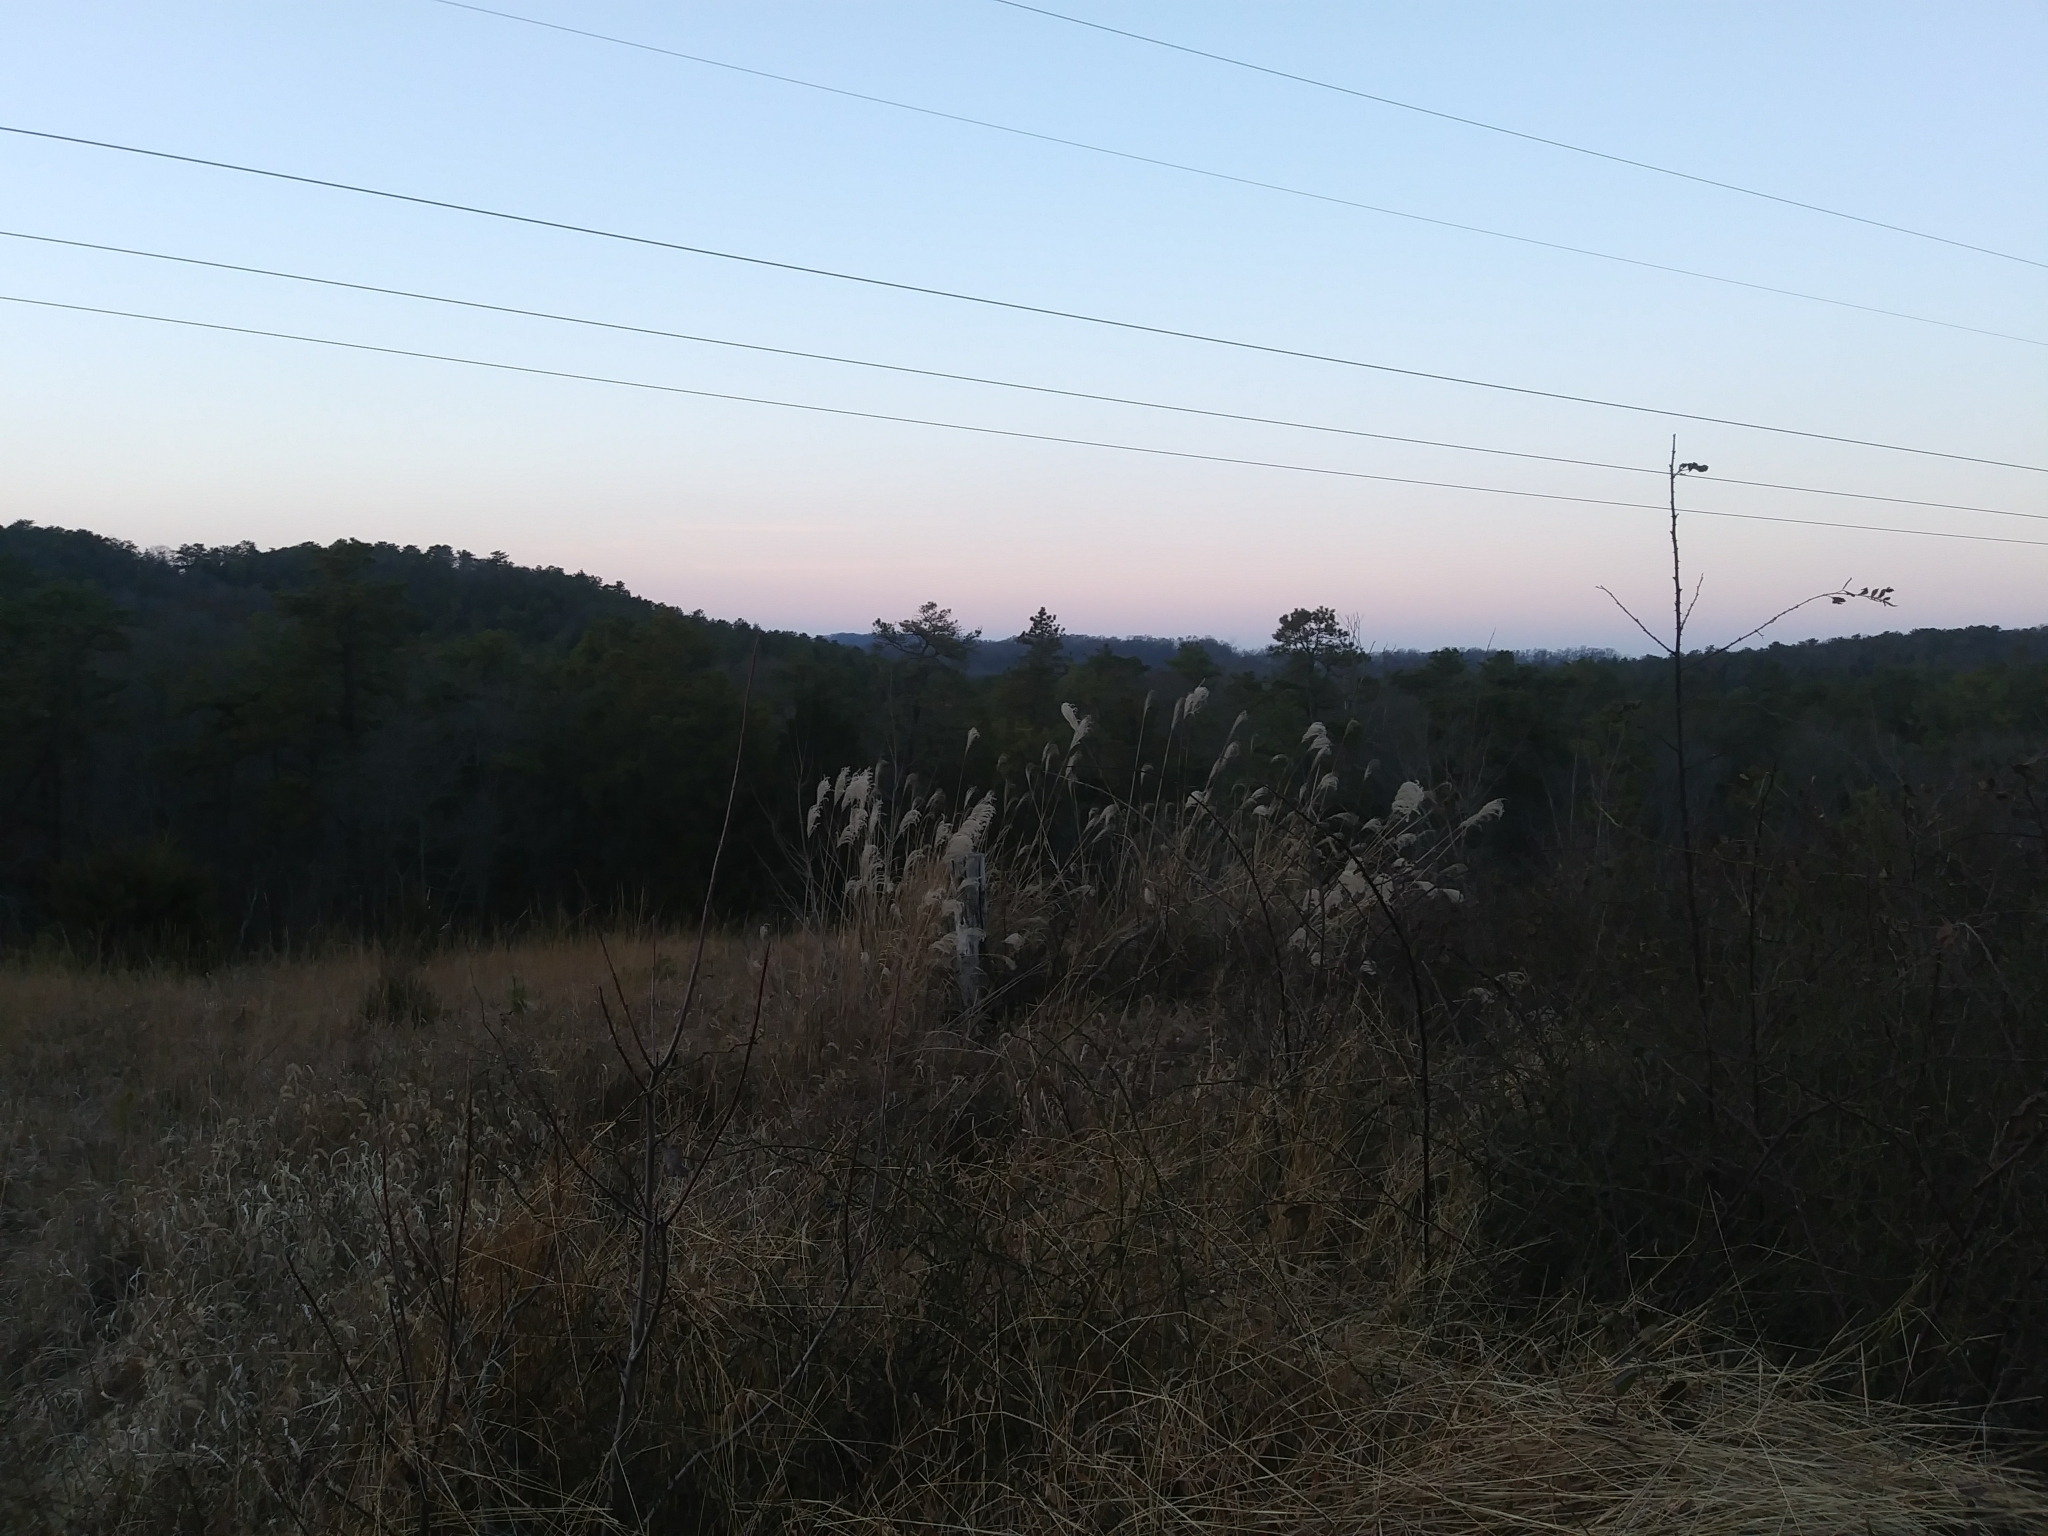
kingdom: Plantae
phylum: Tracheophyta
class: Liliopsida
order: Poales
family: Poaceae
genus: Miscanthus
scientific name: Miscanthus sinensis
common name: Chinese silvergrass
